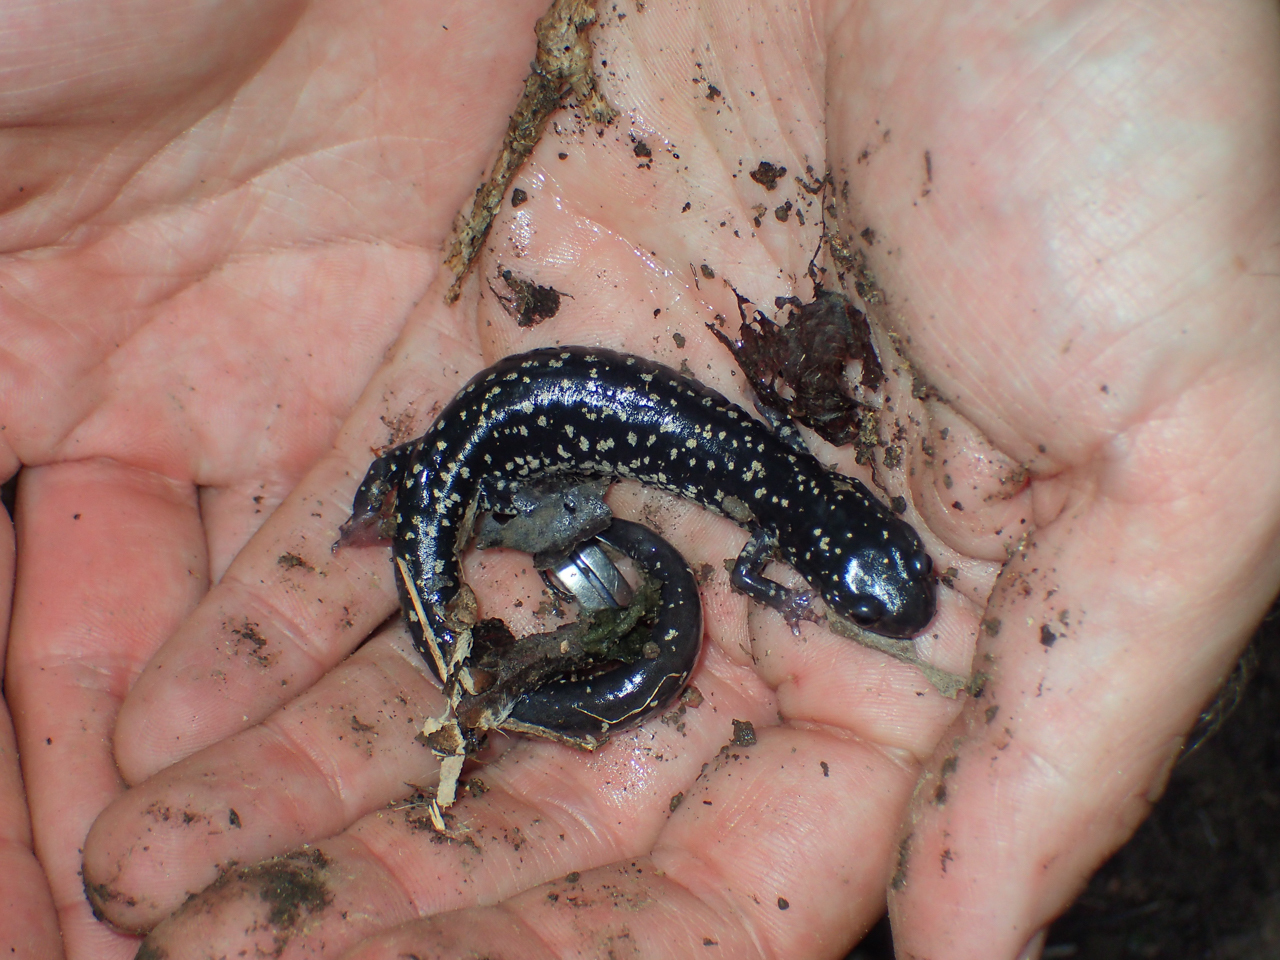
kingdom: Animalia
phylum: Chordata
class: Amphibia
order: Caudata
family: Plethodontidae
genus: Plethodon
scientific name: Plethodon mississippi
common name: Mississippi slimy salamander
